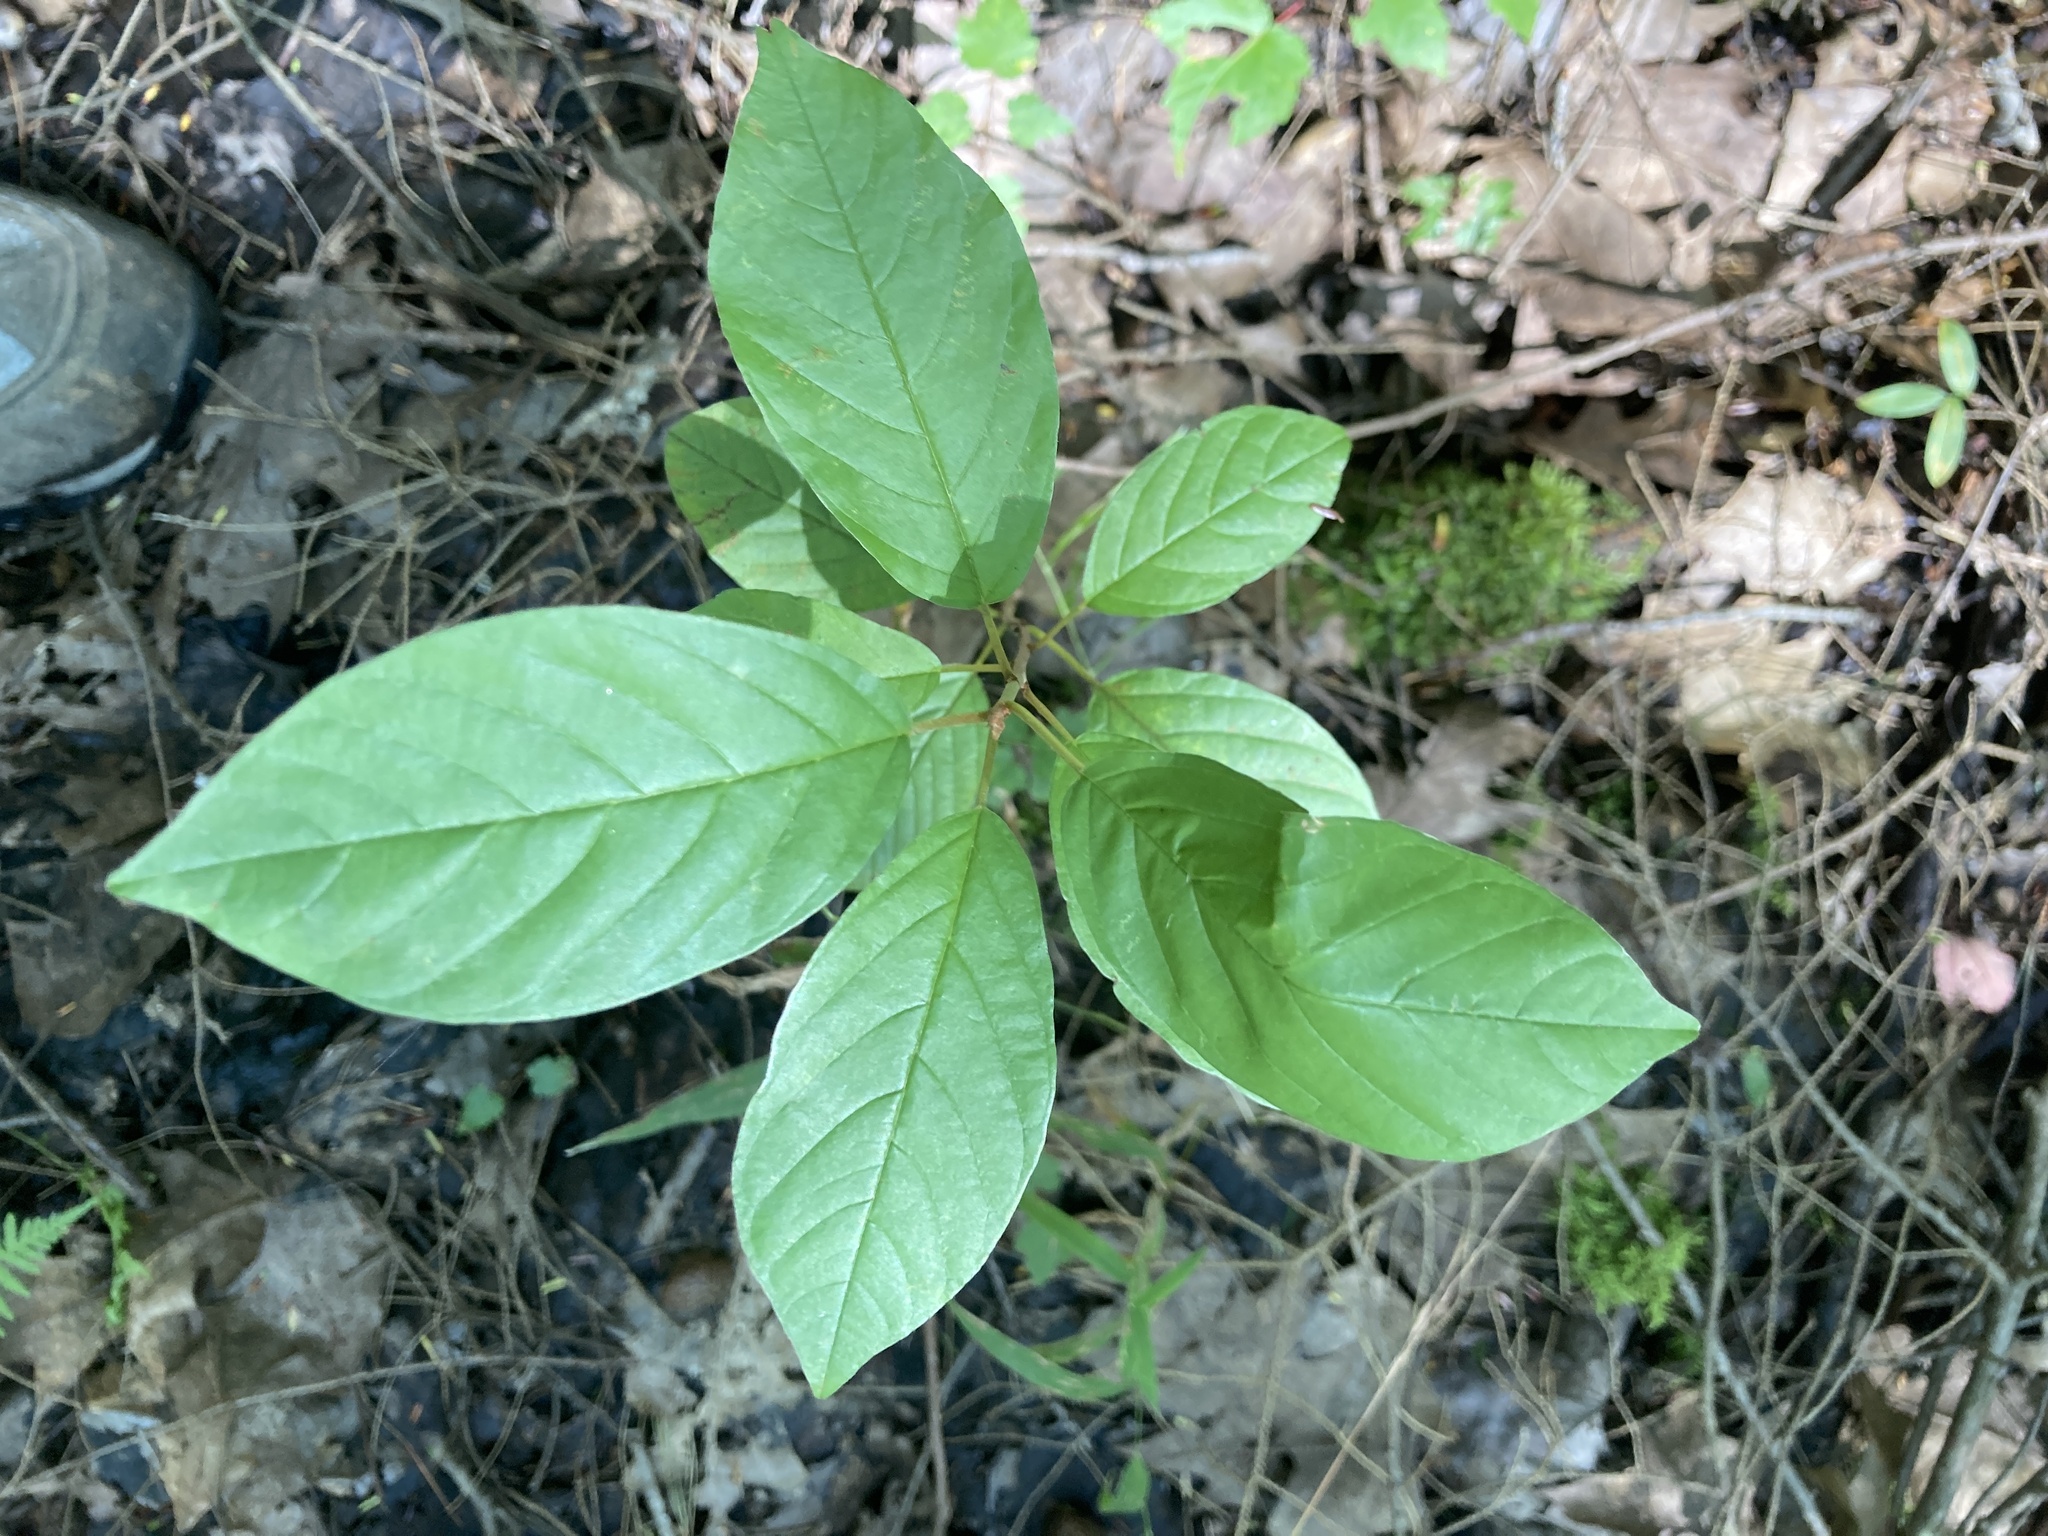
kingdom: Plantae
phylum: Tracheophyta
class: Magnoliopsida
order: Rosales
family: Rhamnaceae
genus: Frangula
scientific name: Frangula alnus
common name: Alder buckthorn
